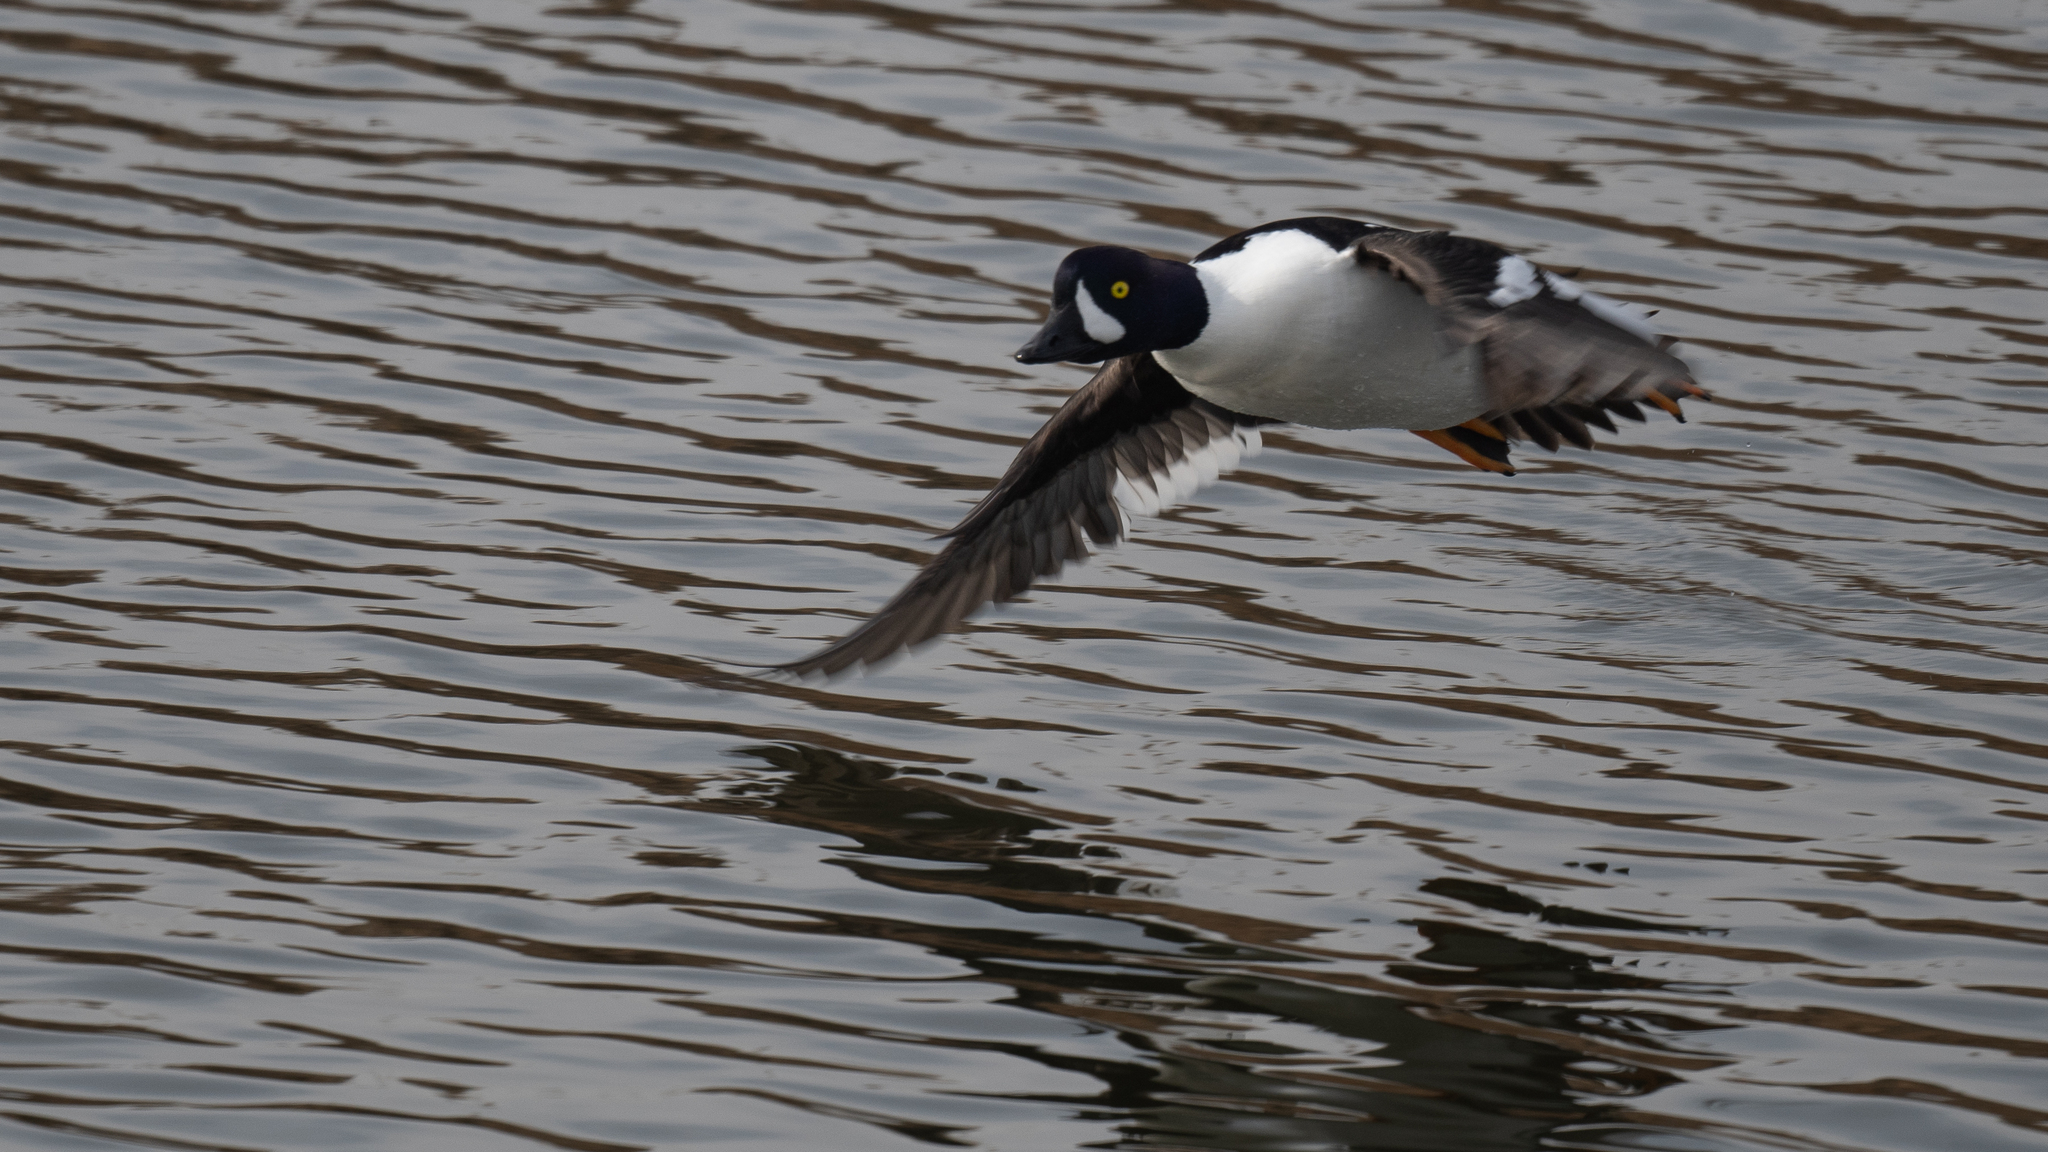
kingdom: Animalia
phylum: Chordata
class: Aves
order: Anseriformes
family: Anatidae
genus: Bucephala
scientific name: Bucephala islandica
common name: Barrow's goldeneye
